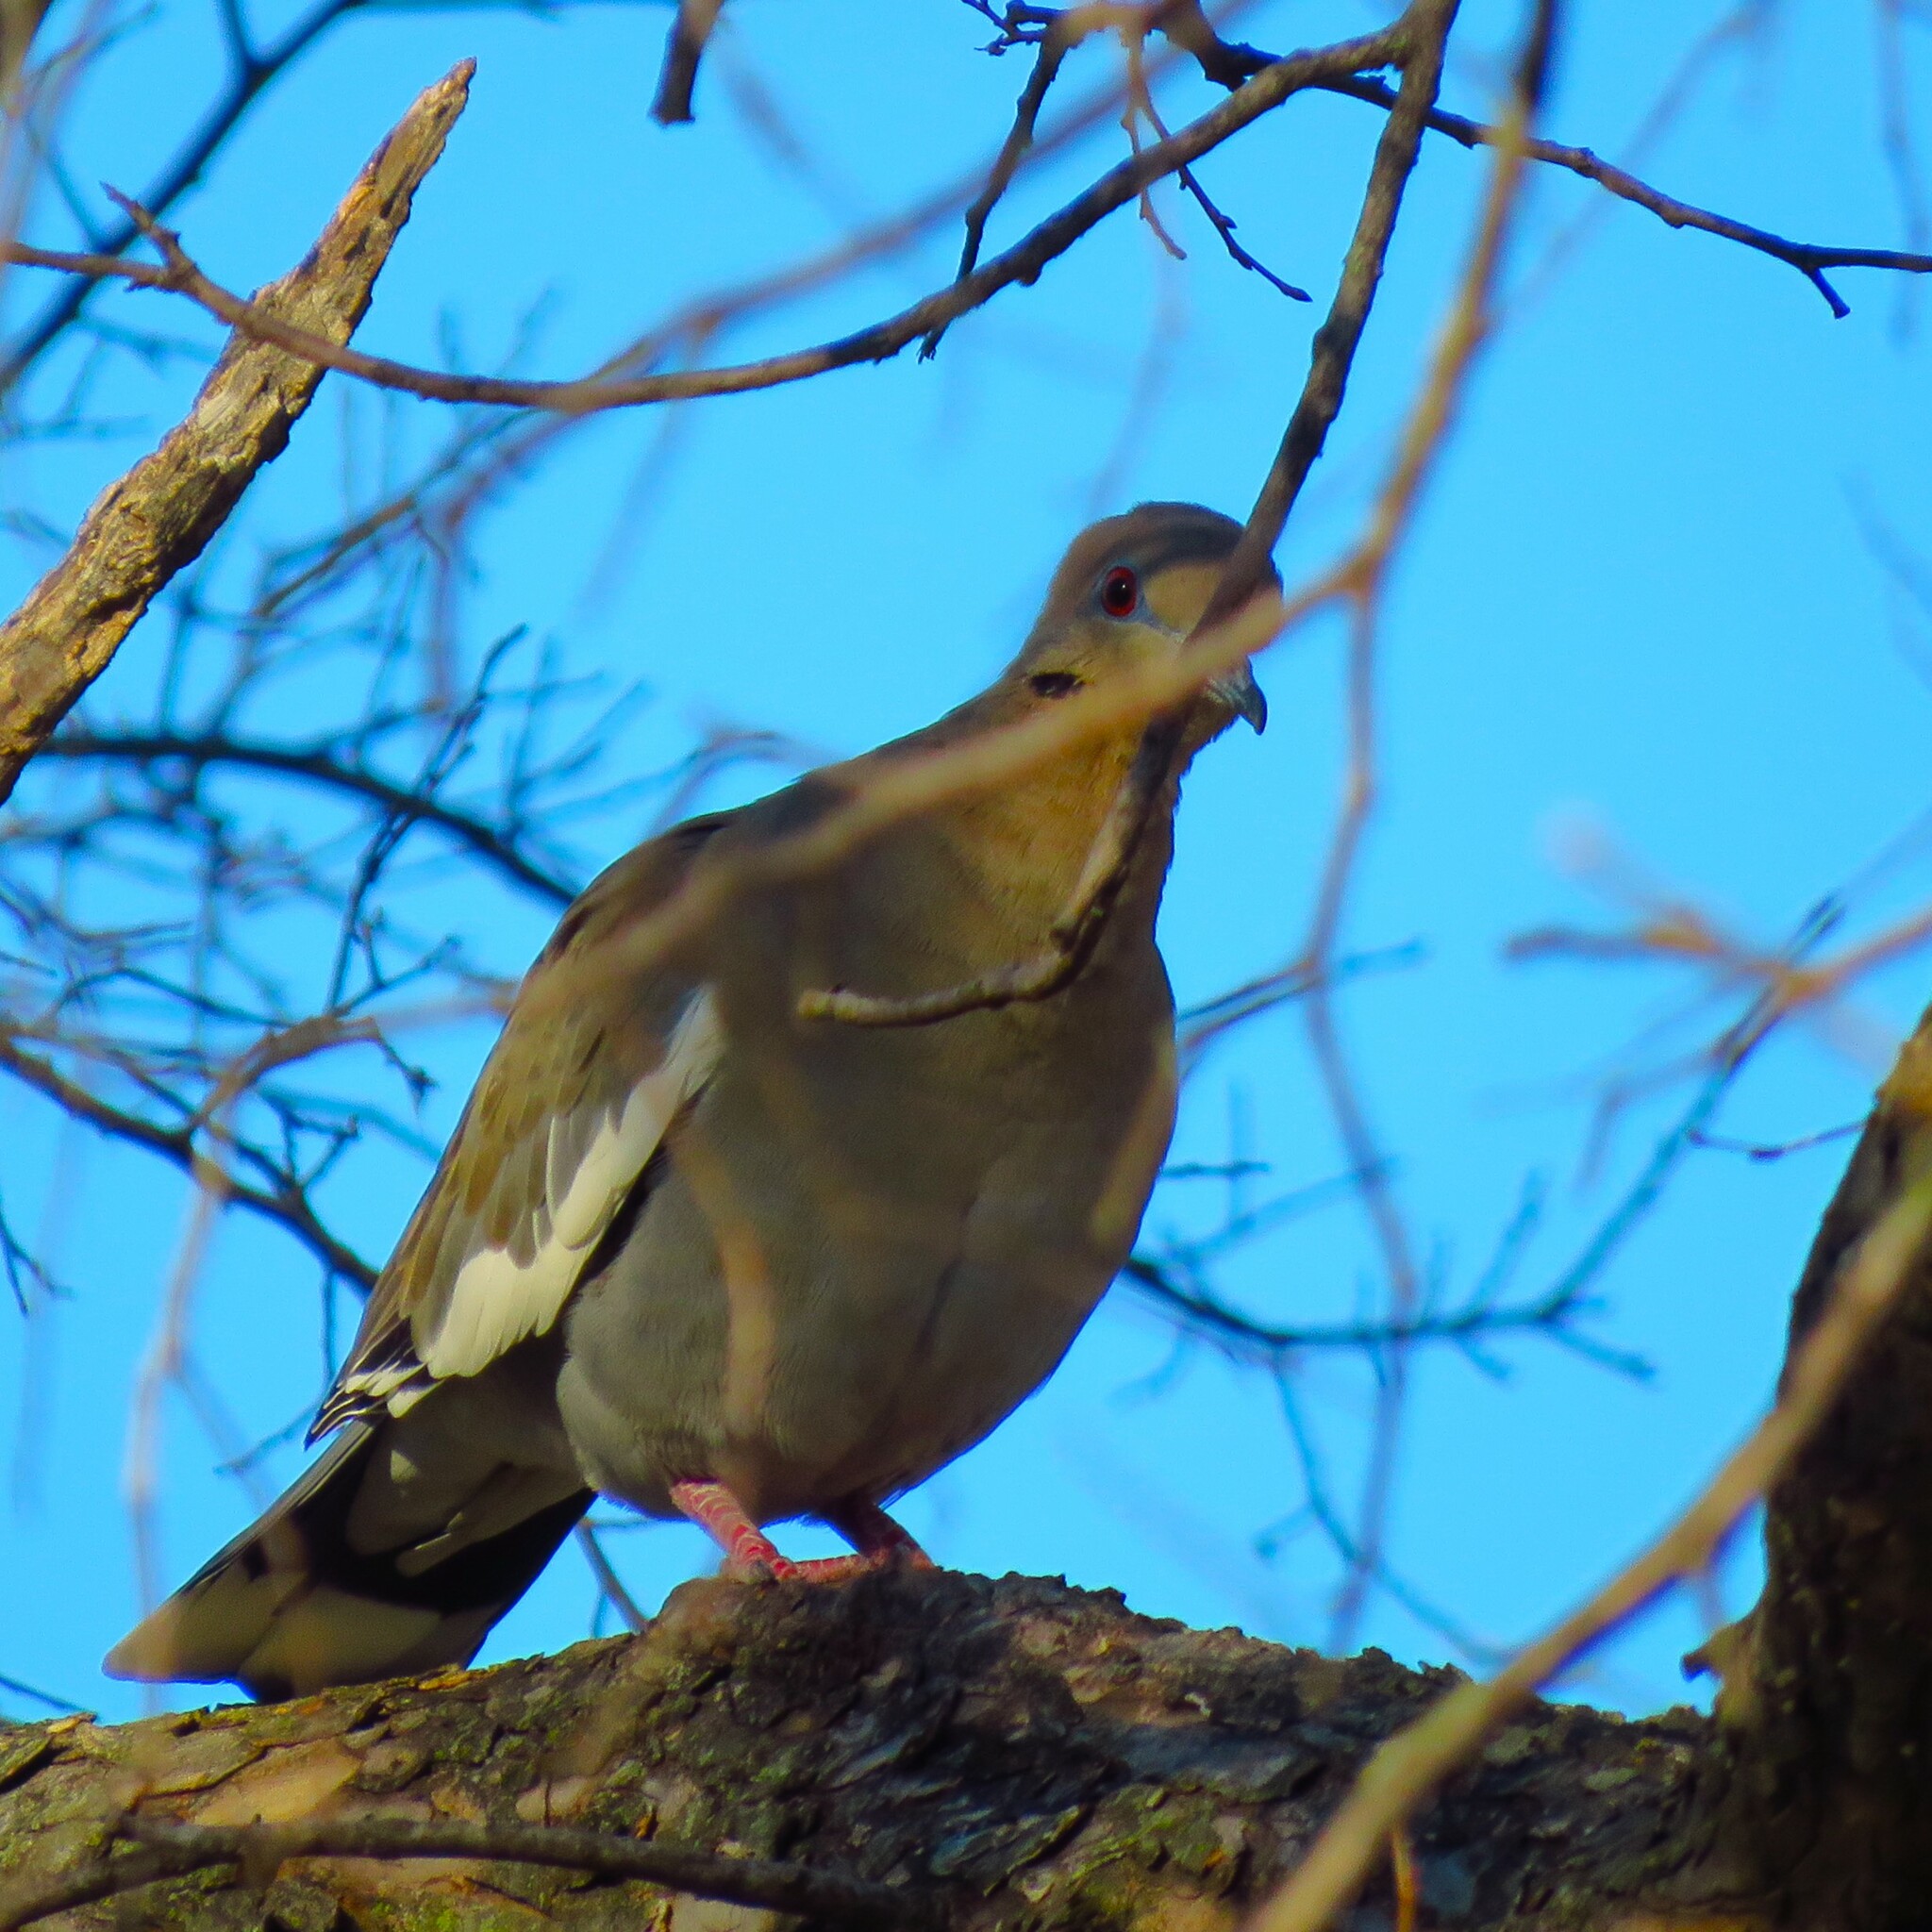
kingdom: Animalia
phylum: Chordata
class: Aves
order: Columbiformes
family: Columbidae
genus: Zenaida
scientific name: Zenaida asiatica
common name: White-winged dove
